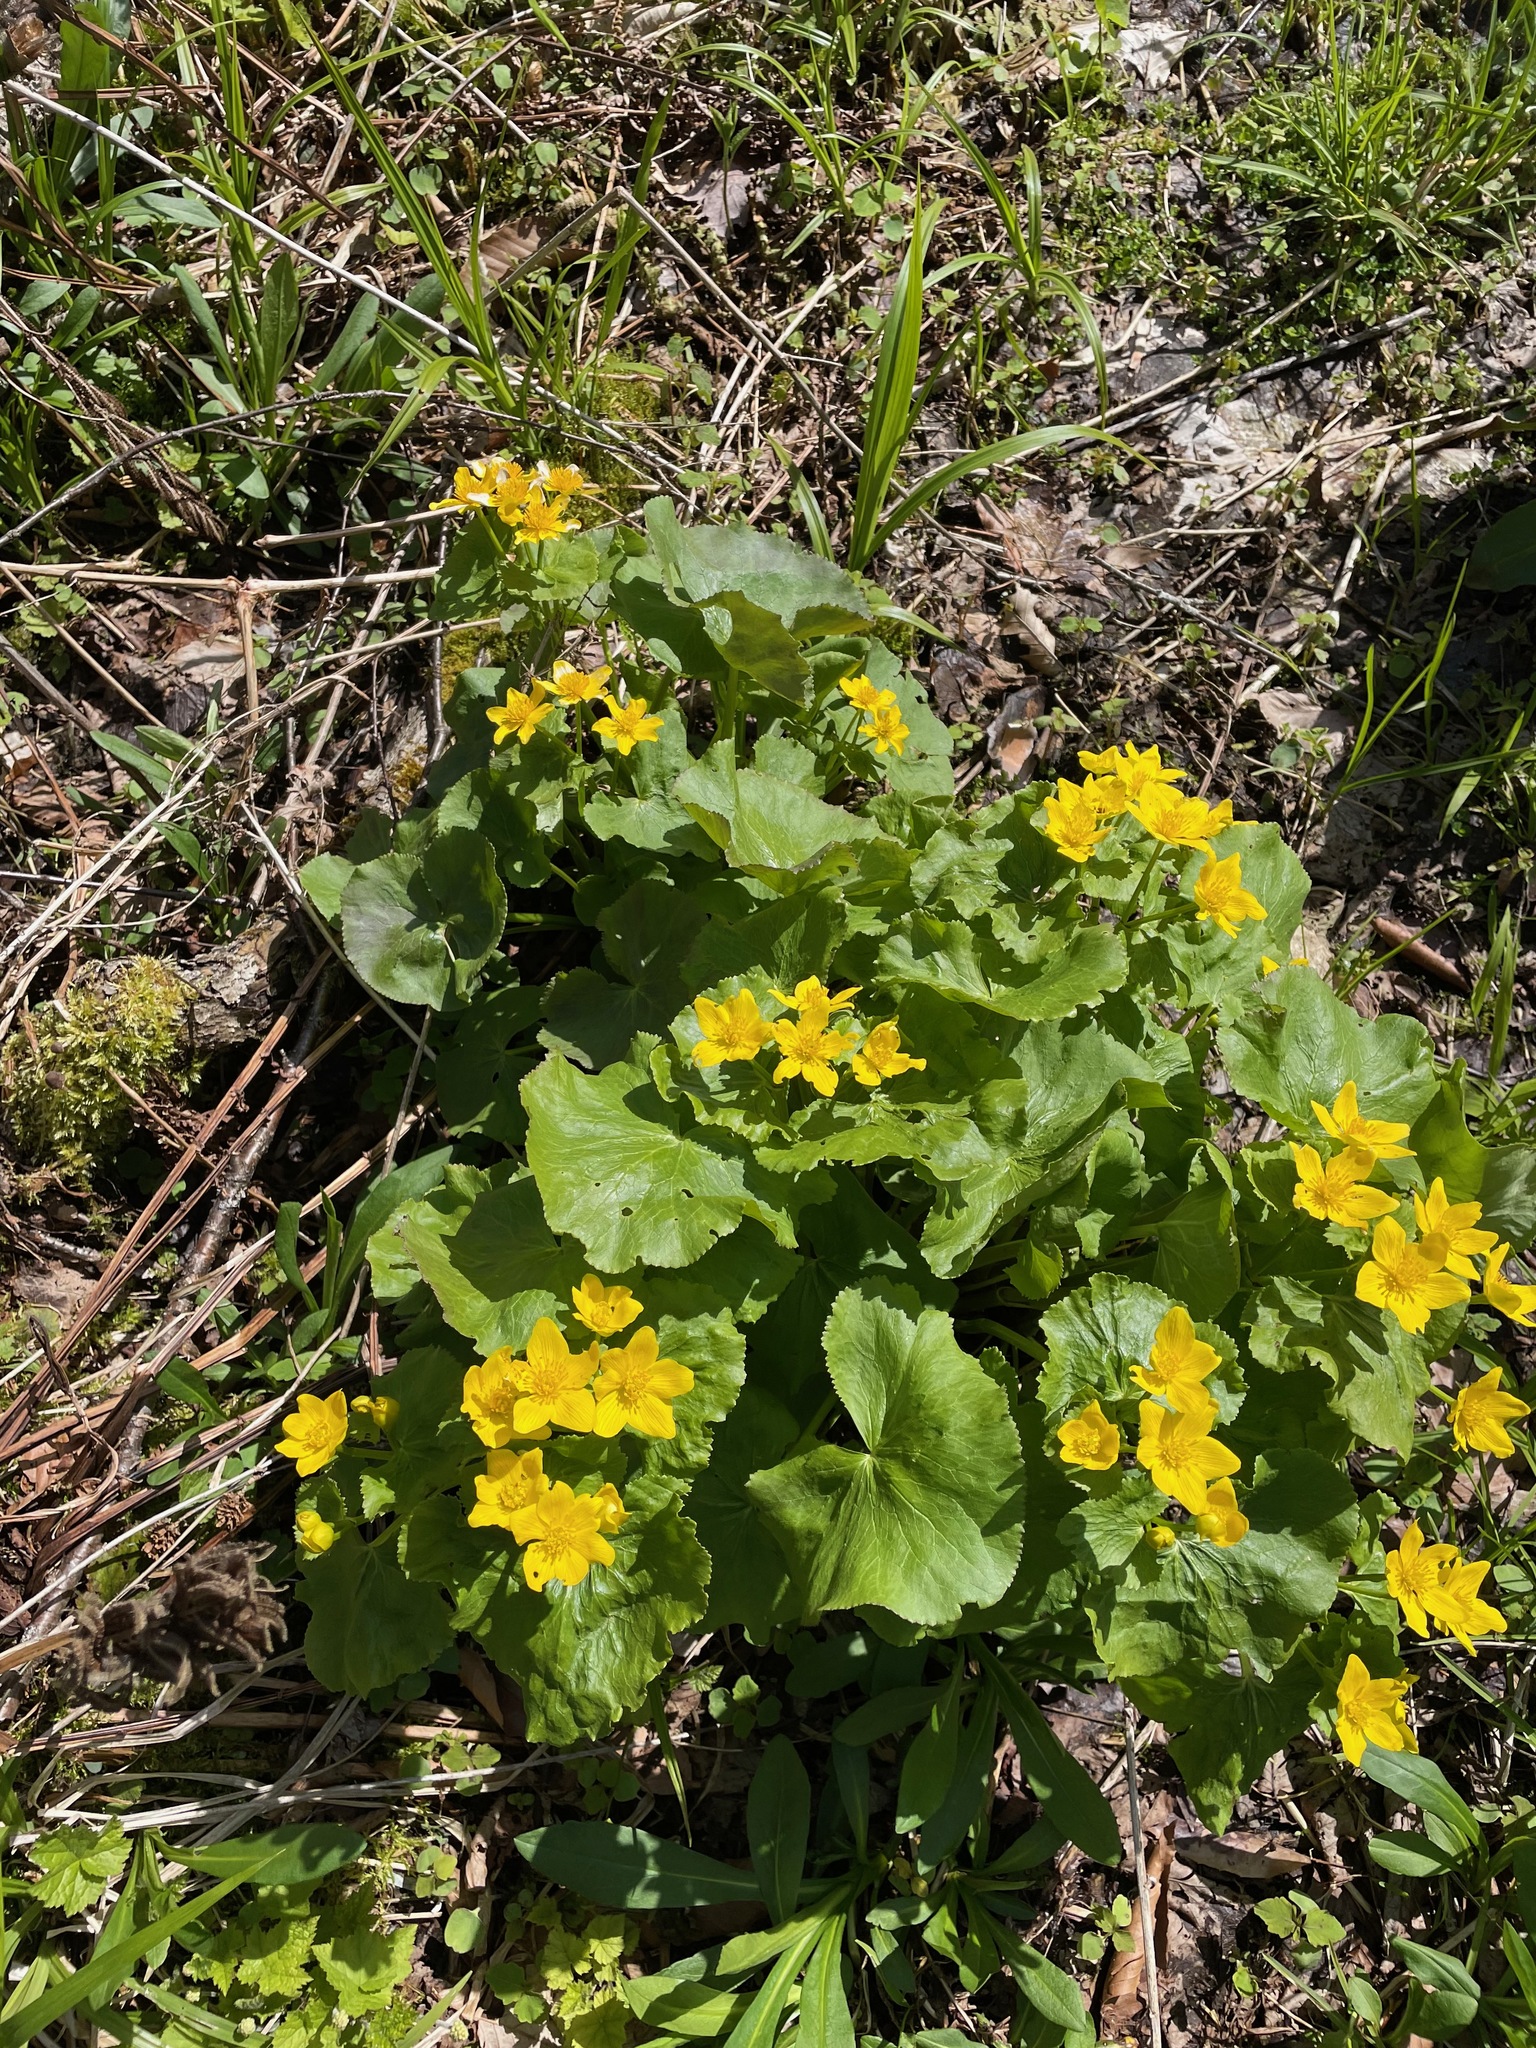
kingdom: Plantae
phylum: Tracheophyta
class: Magnoliopsida
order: Ranunculales
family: Ranunculaceae
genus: Caltha
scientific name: Caltha palustris
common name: Marsh marigold
